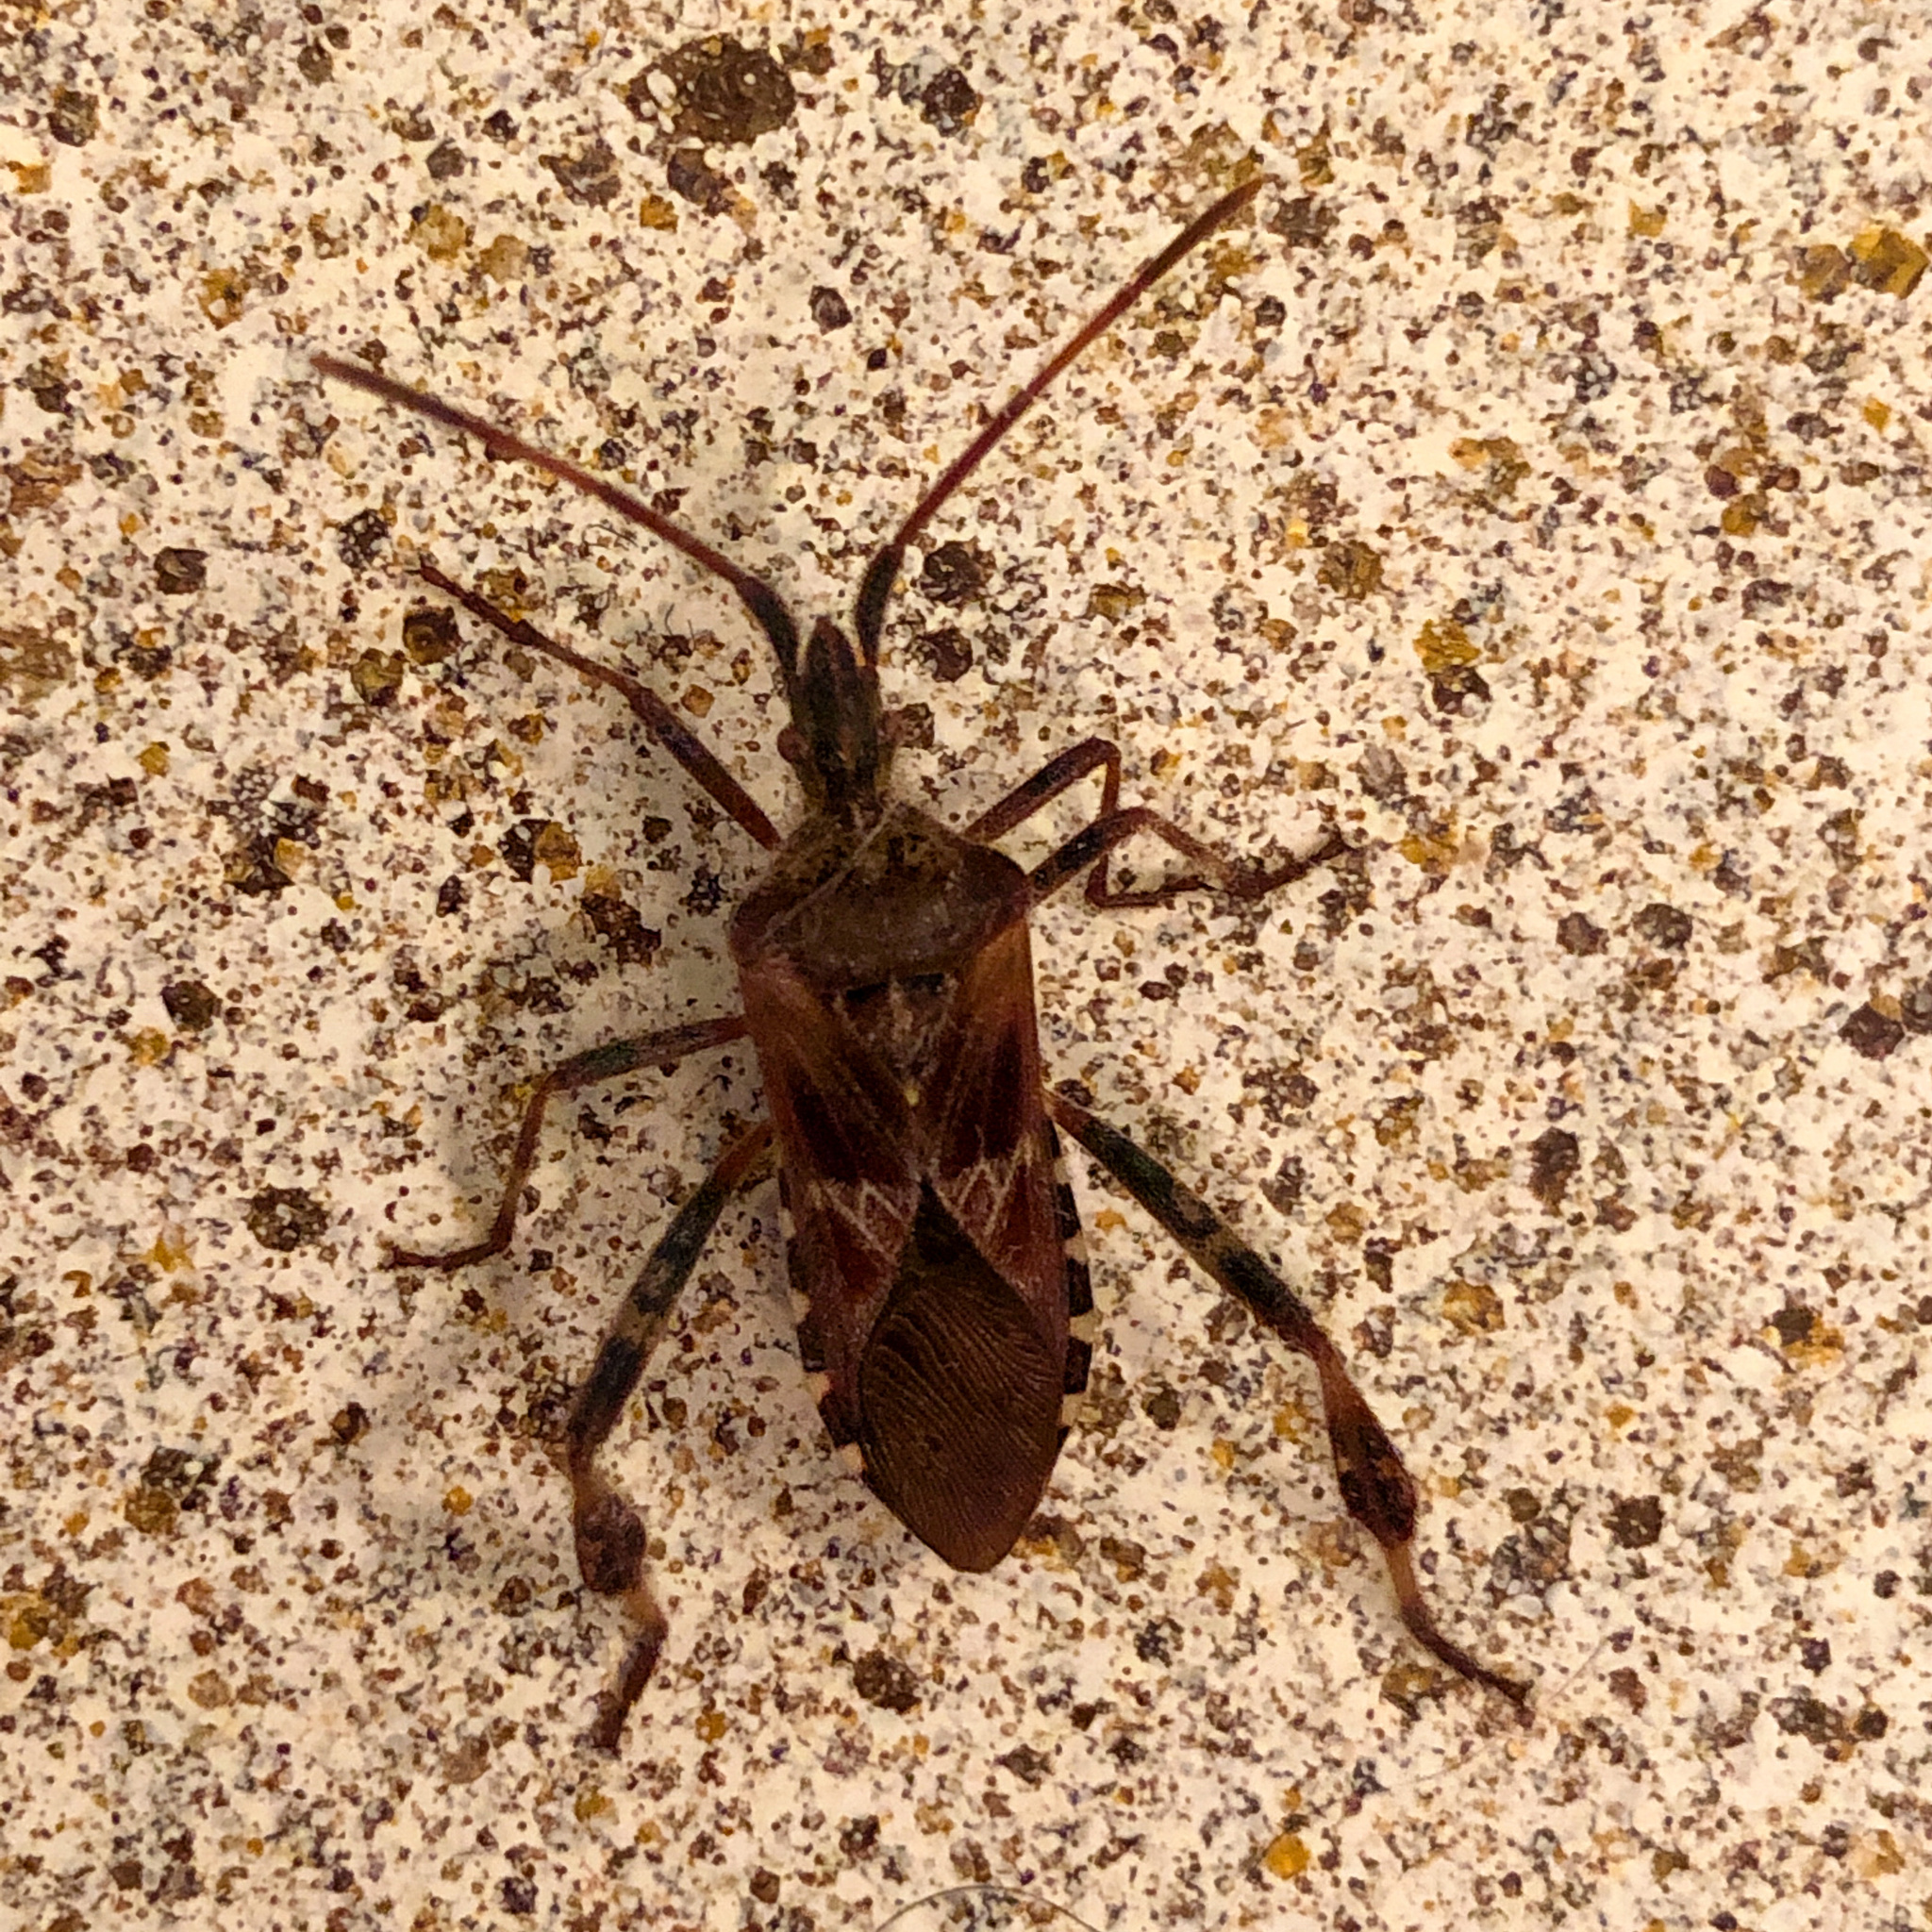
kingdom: Animalia
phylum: Arthropoda
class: Insecta
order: Hemiptera
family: Coreidae
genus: Leptoglossus
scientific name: Leptoglossus occidentalis
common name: Western conifer-seed bug
